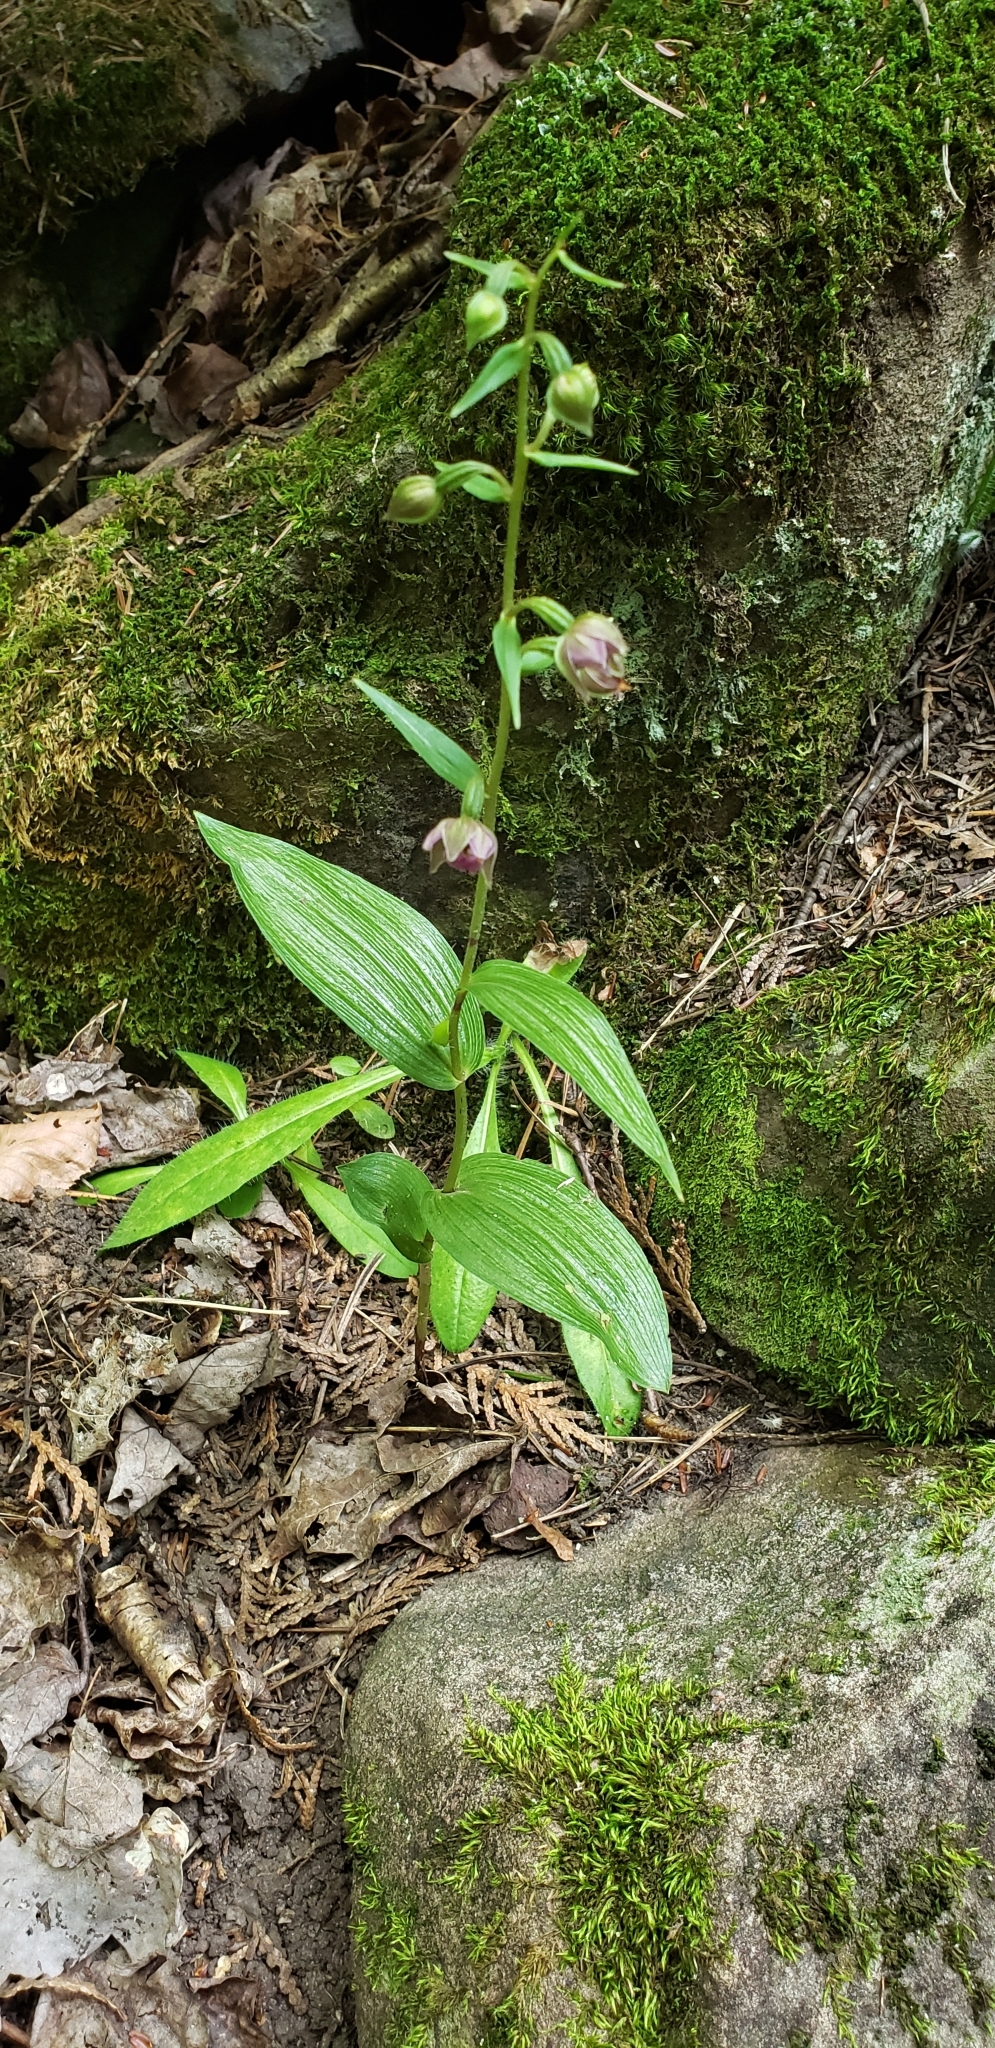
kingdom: Plantae
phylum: Tracheophyta
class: Liliopsida
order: Asparagales
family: Orchidaceae
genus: Epipactis
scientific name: Epipactis helleborine
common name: Broad-leaved helleborine
